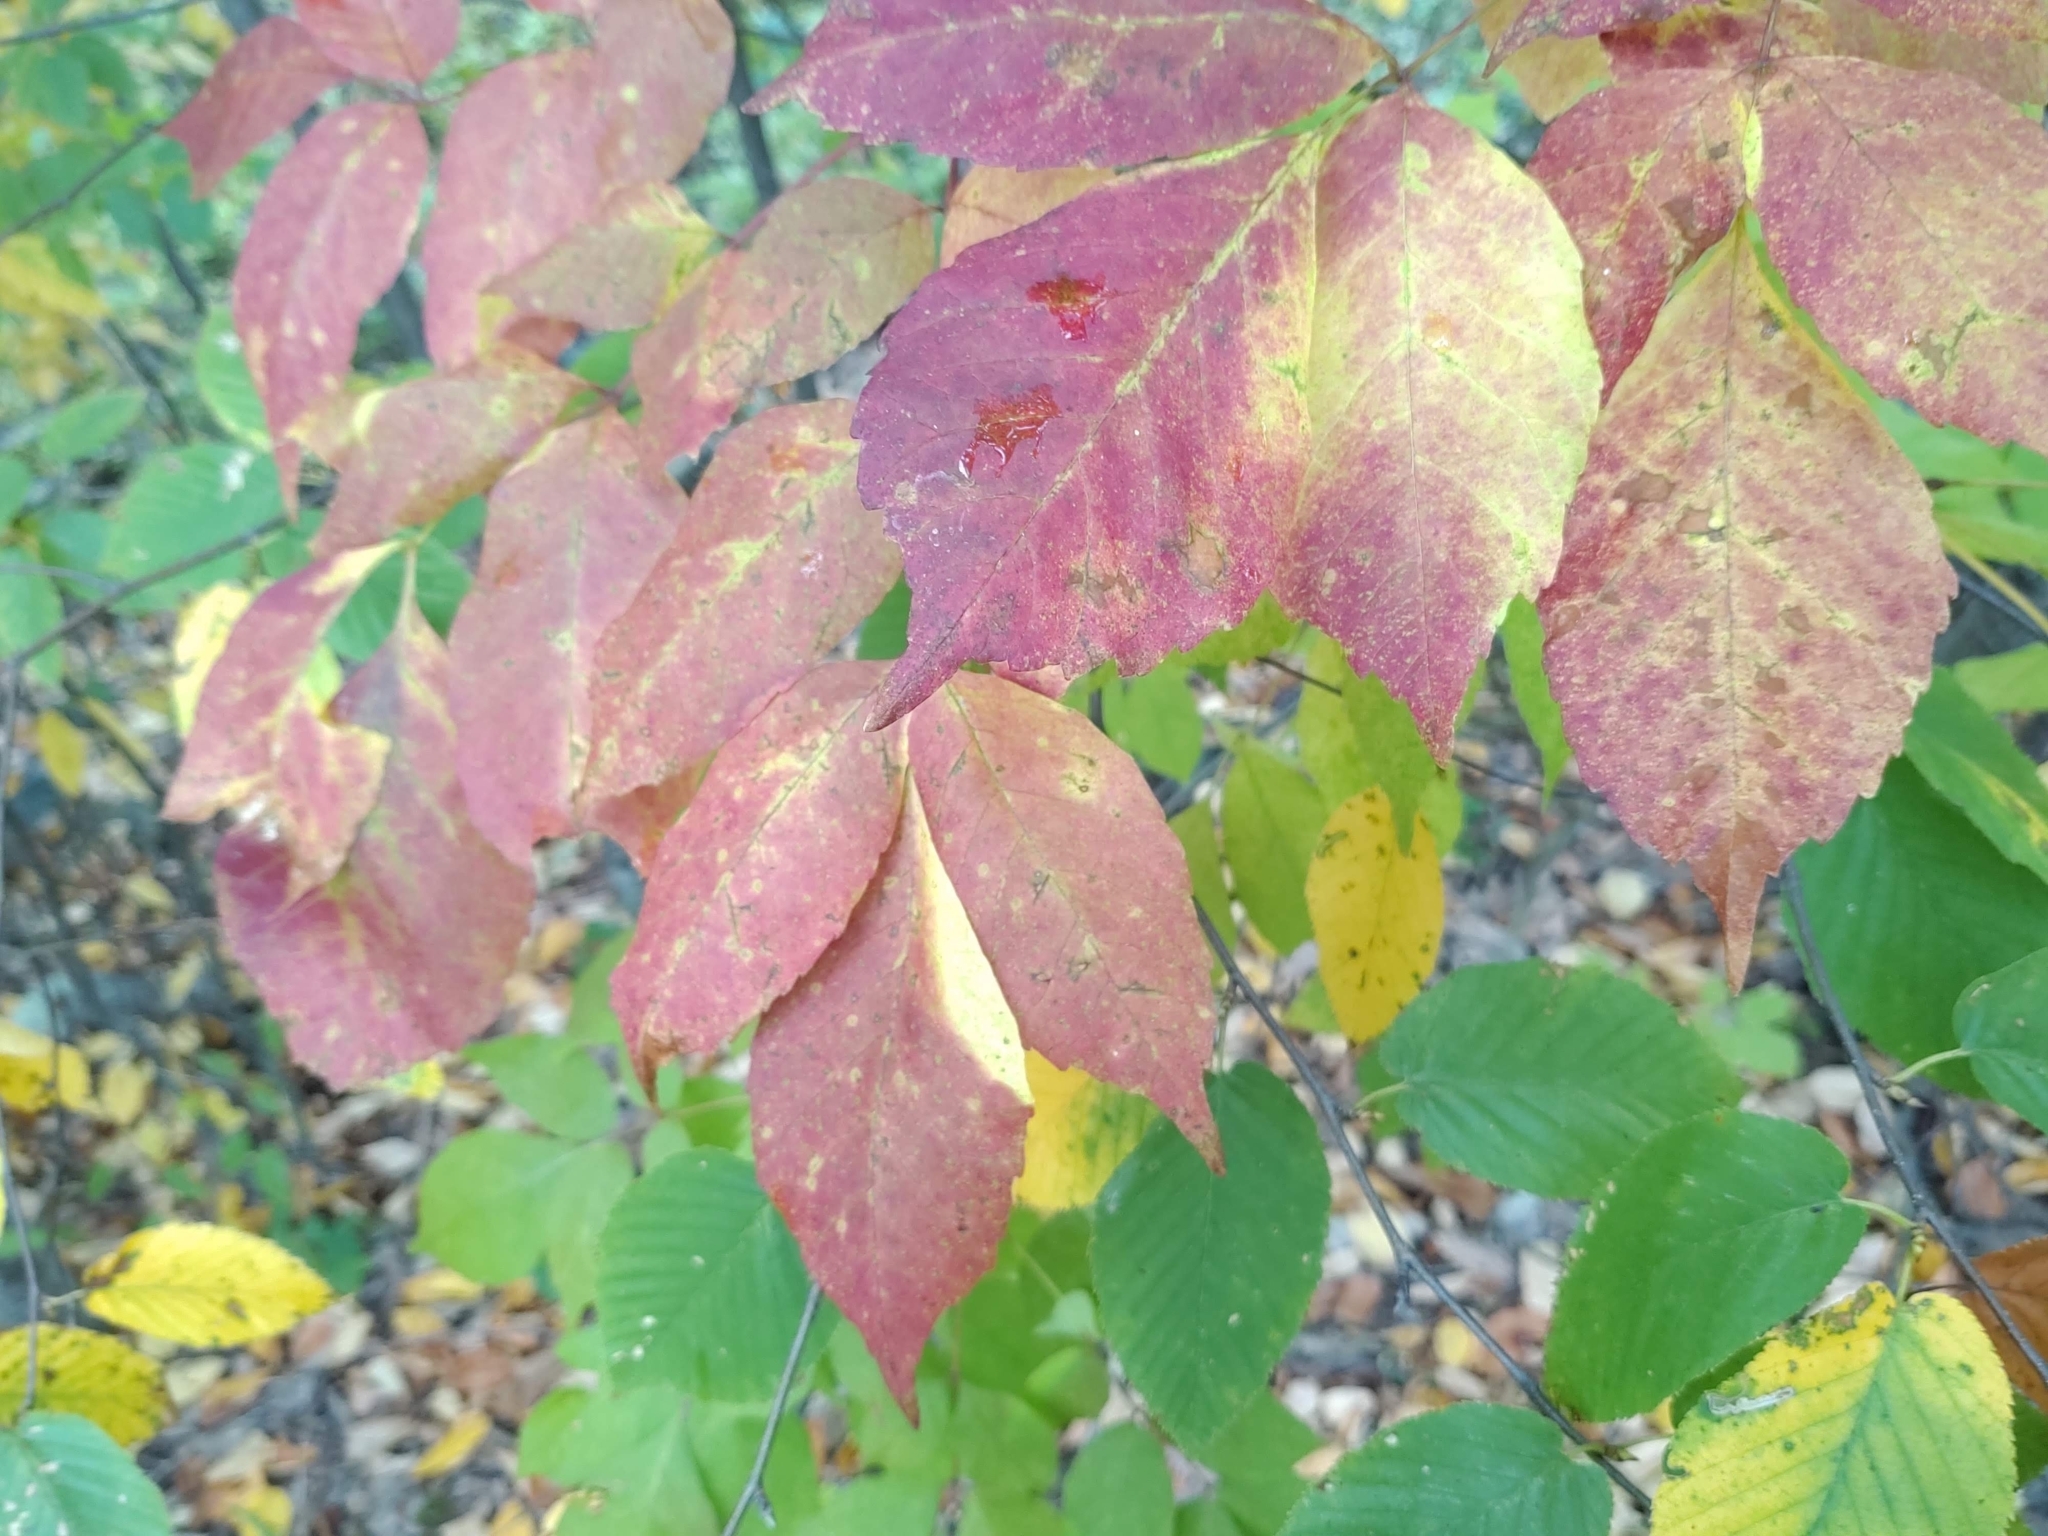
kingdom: Plantae
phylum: Tracheophyta
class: Magnoliopsida
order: Sapindales
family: Sapindaceae
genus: Acer
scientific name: Acer negundo
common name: Ashleaf maple
